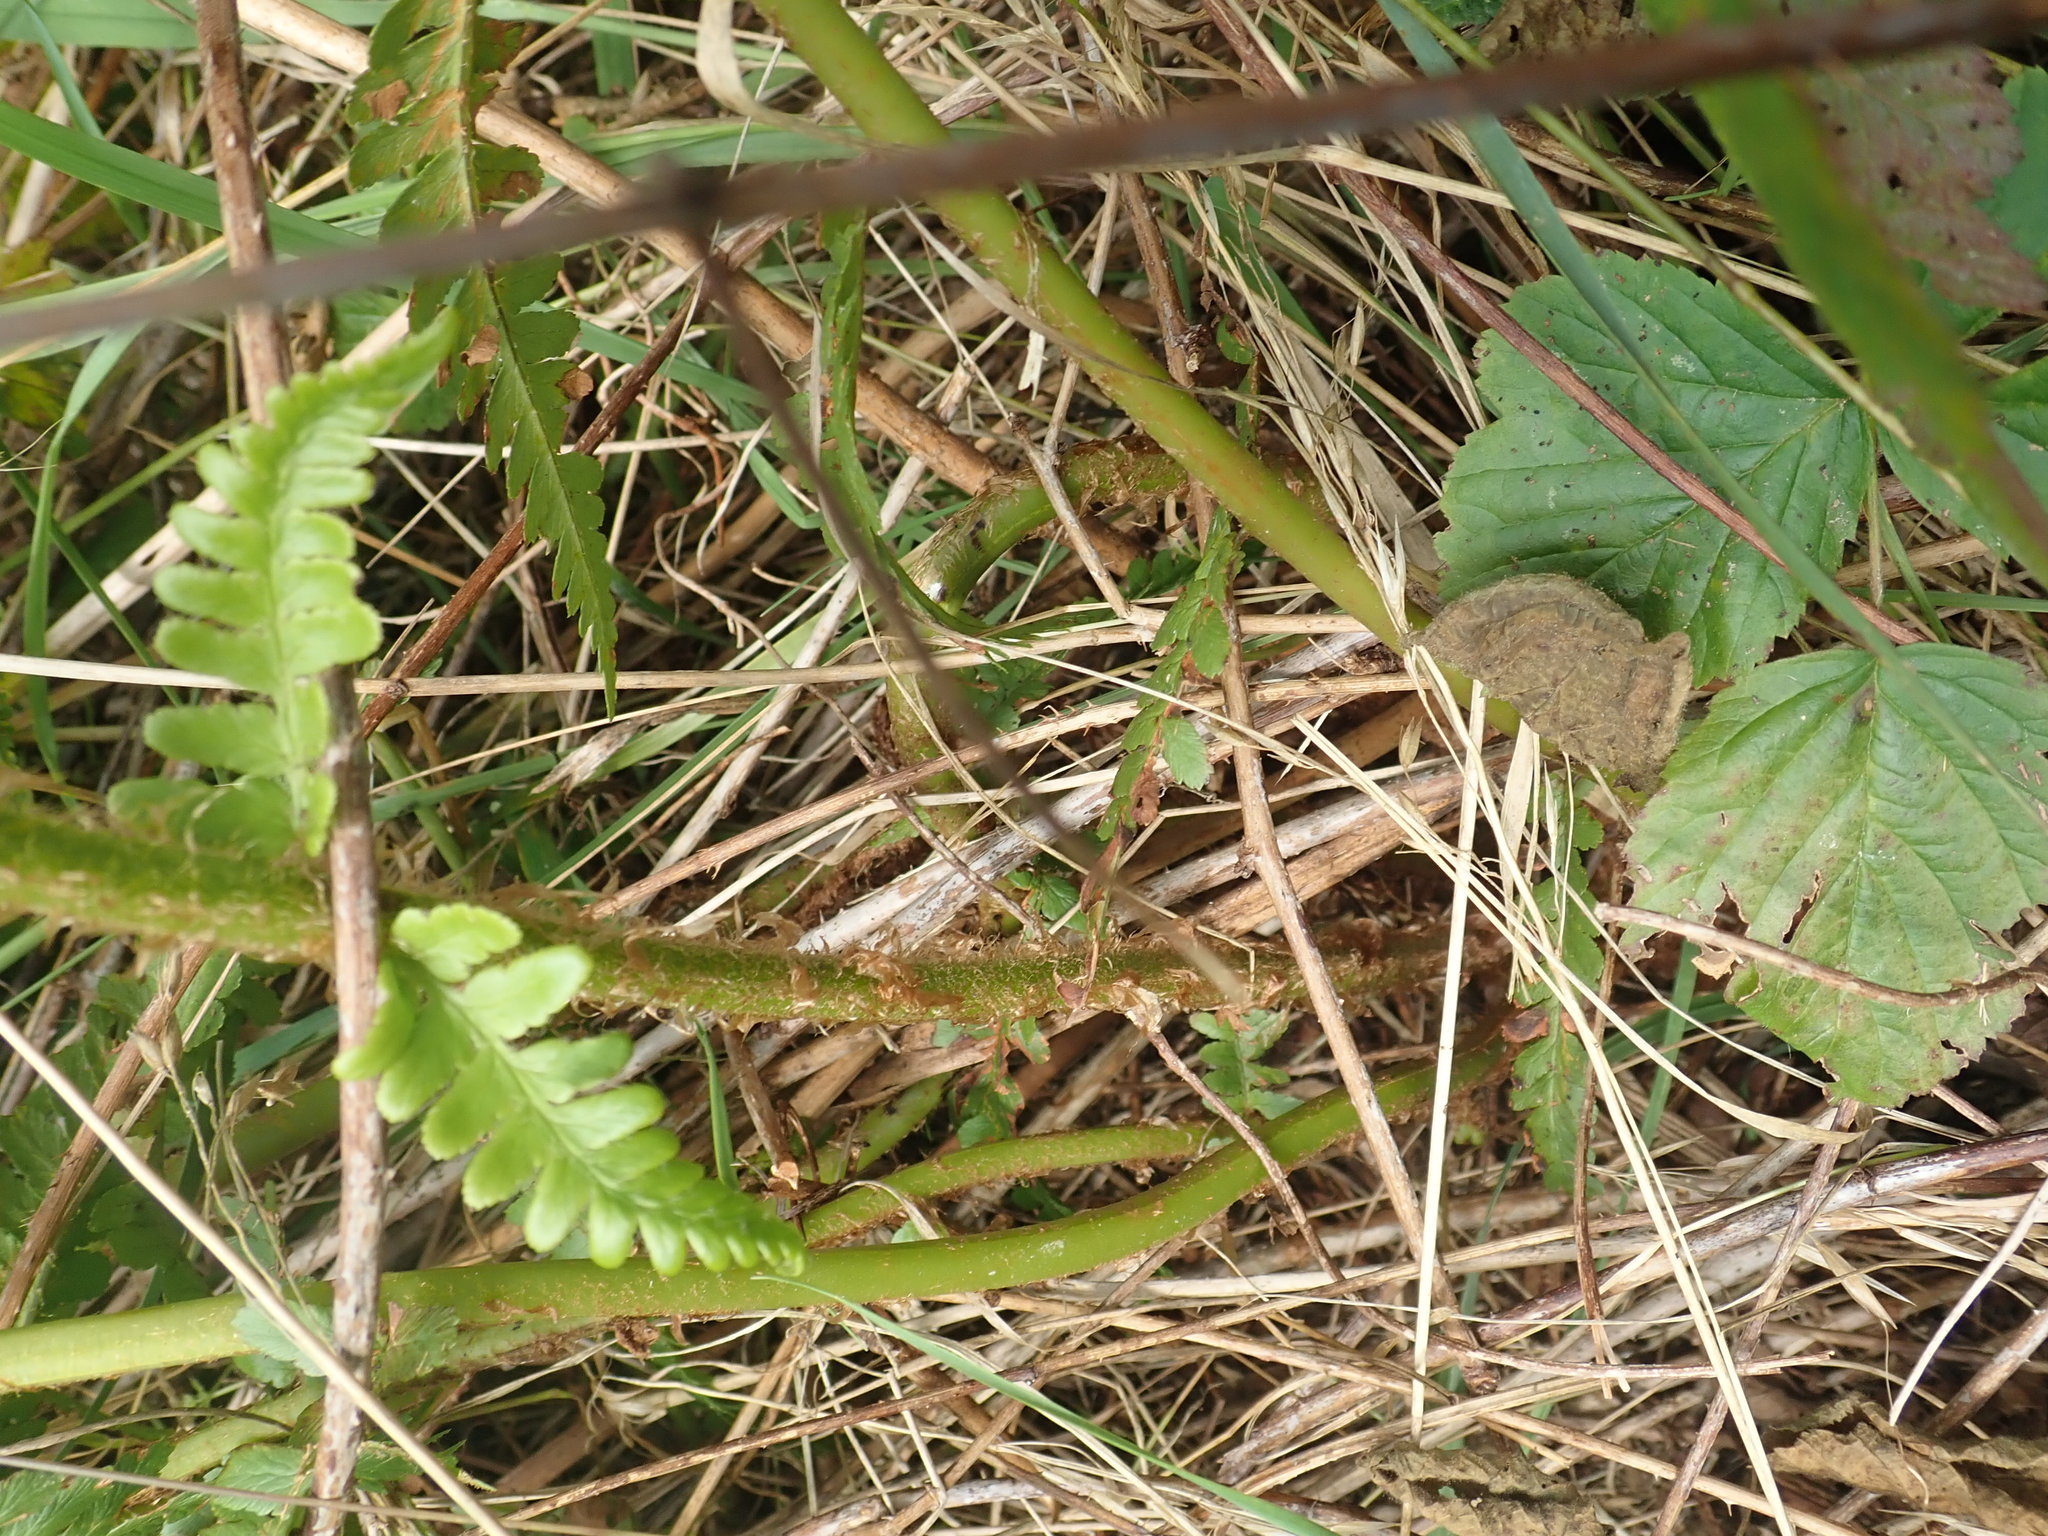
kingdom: Plantae
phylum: Tracheophyta
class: Polypodiopsida
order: Polypodiales
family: Dryopteridaceae
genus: Dryopteris
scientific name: Dryopteris filix-mas
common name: Male fern
